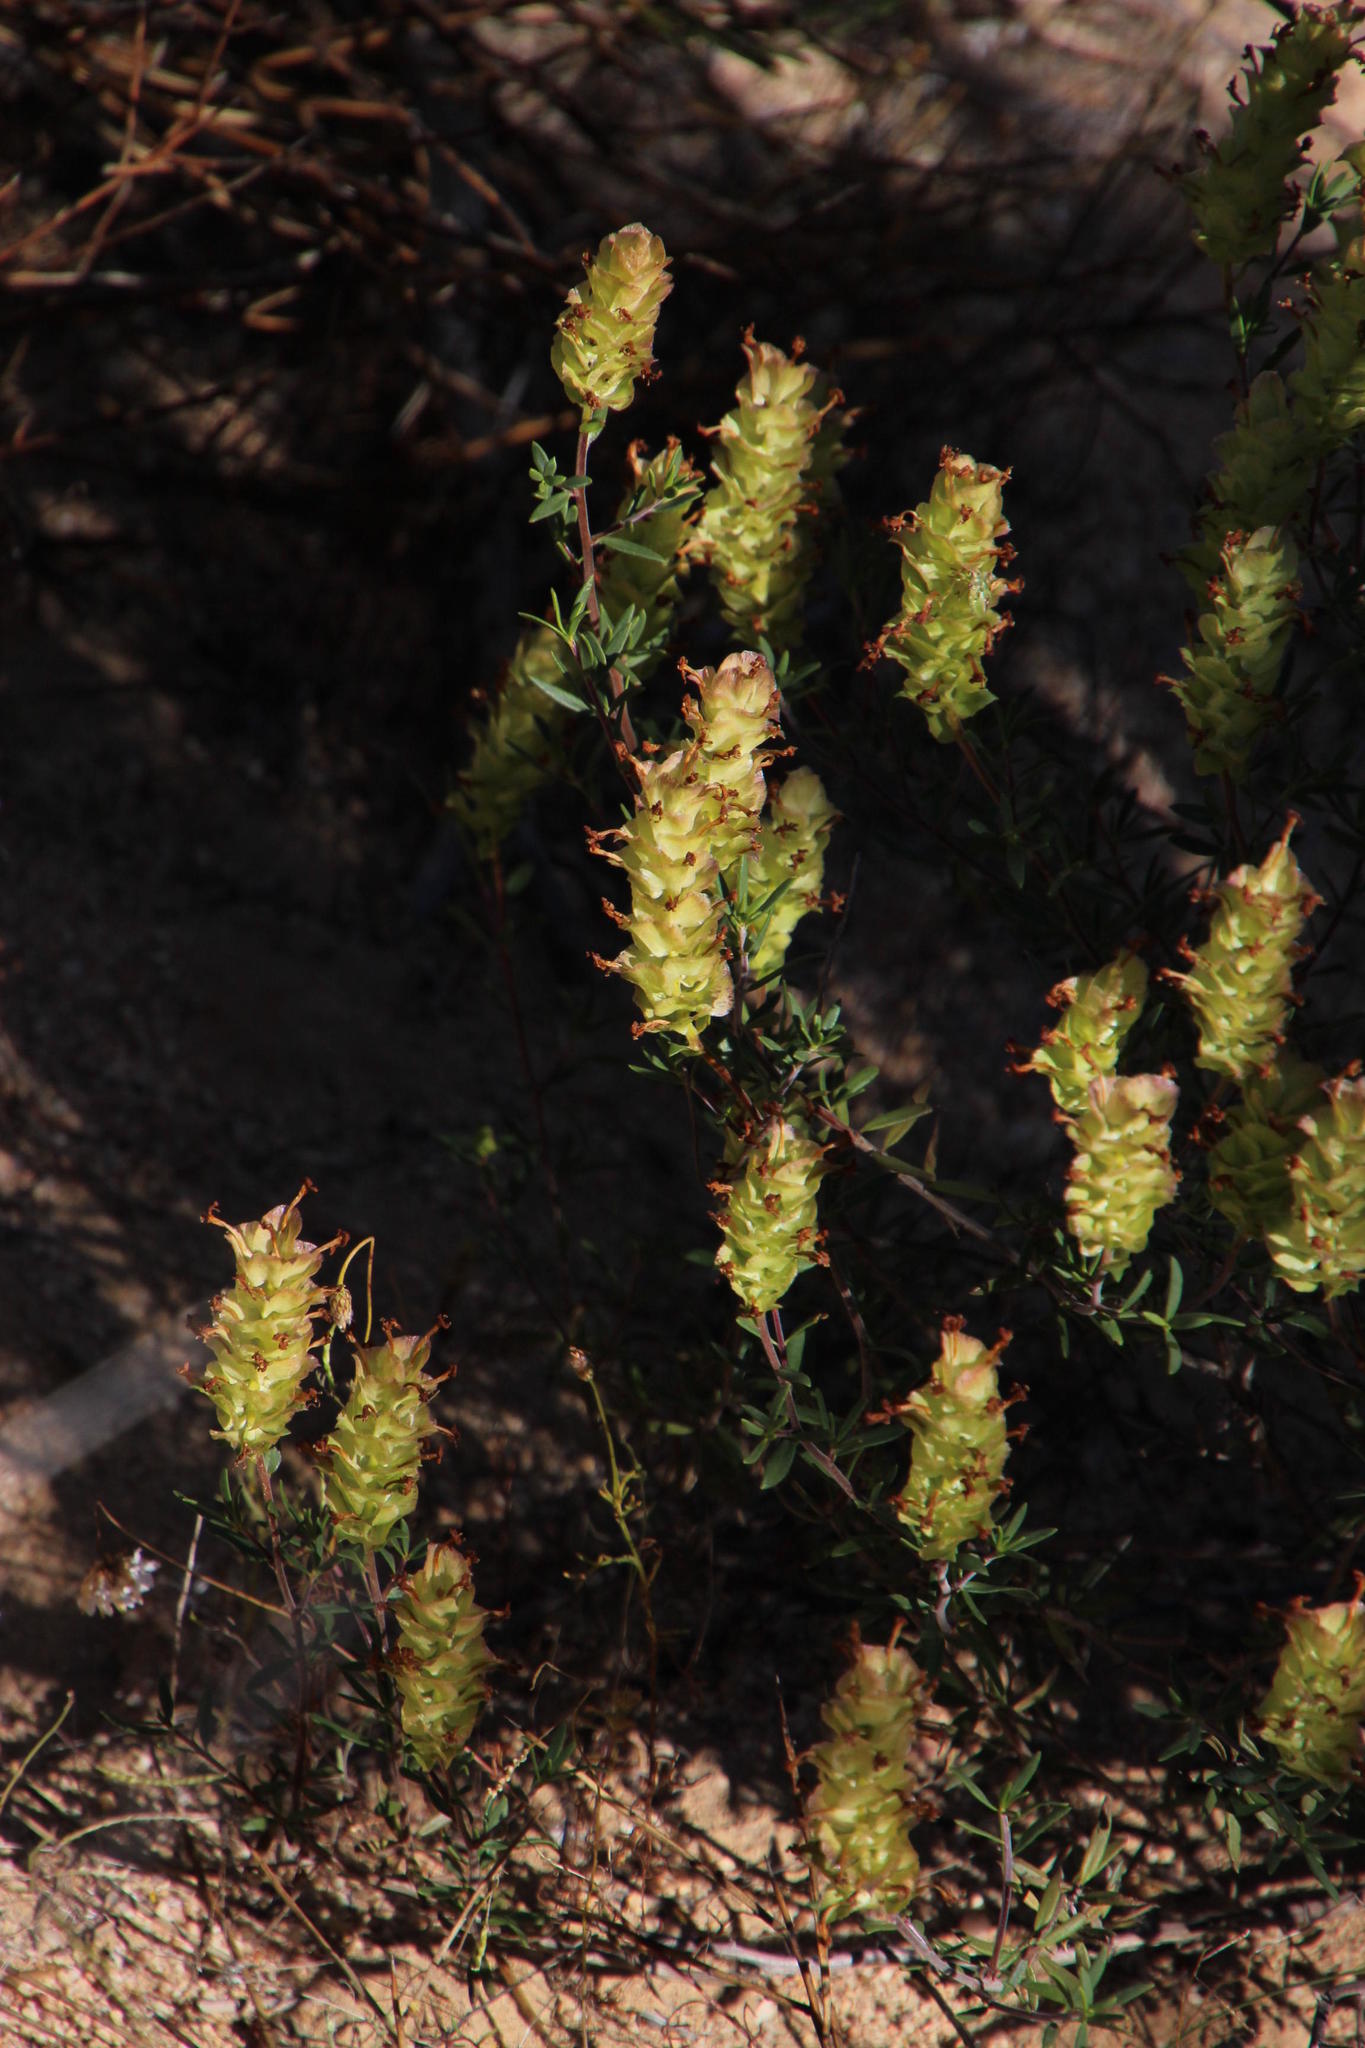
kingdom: Plantae
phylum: Tracheophyta
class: Magnoliopsida
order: Lamiales
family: Scrophulariaceae
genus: Microdon
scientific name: Microdon orbicularis
